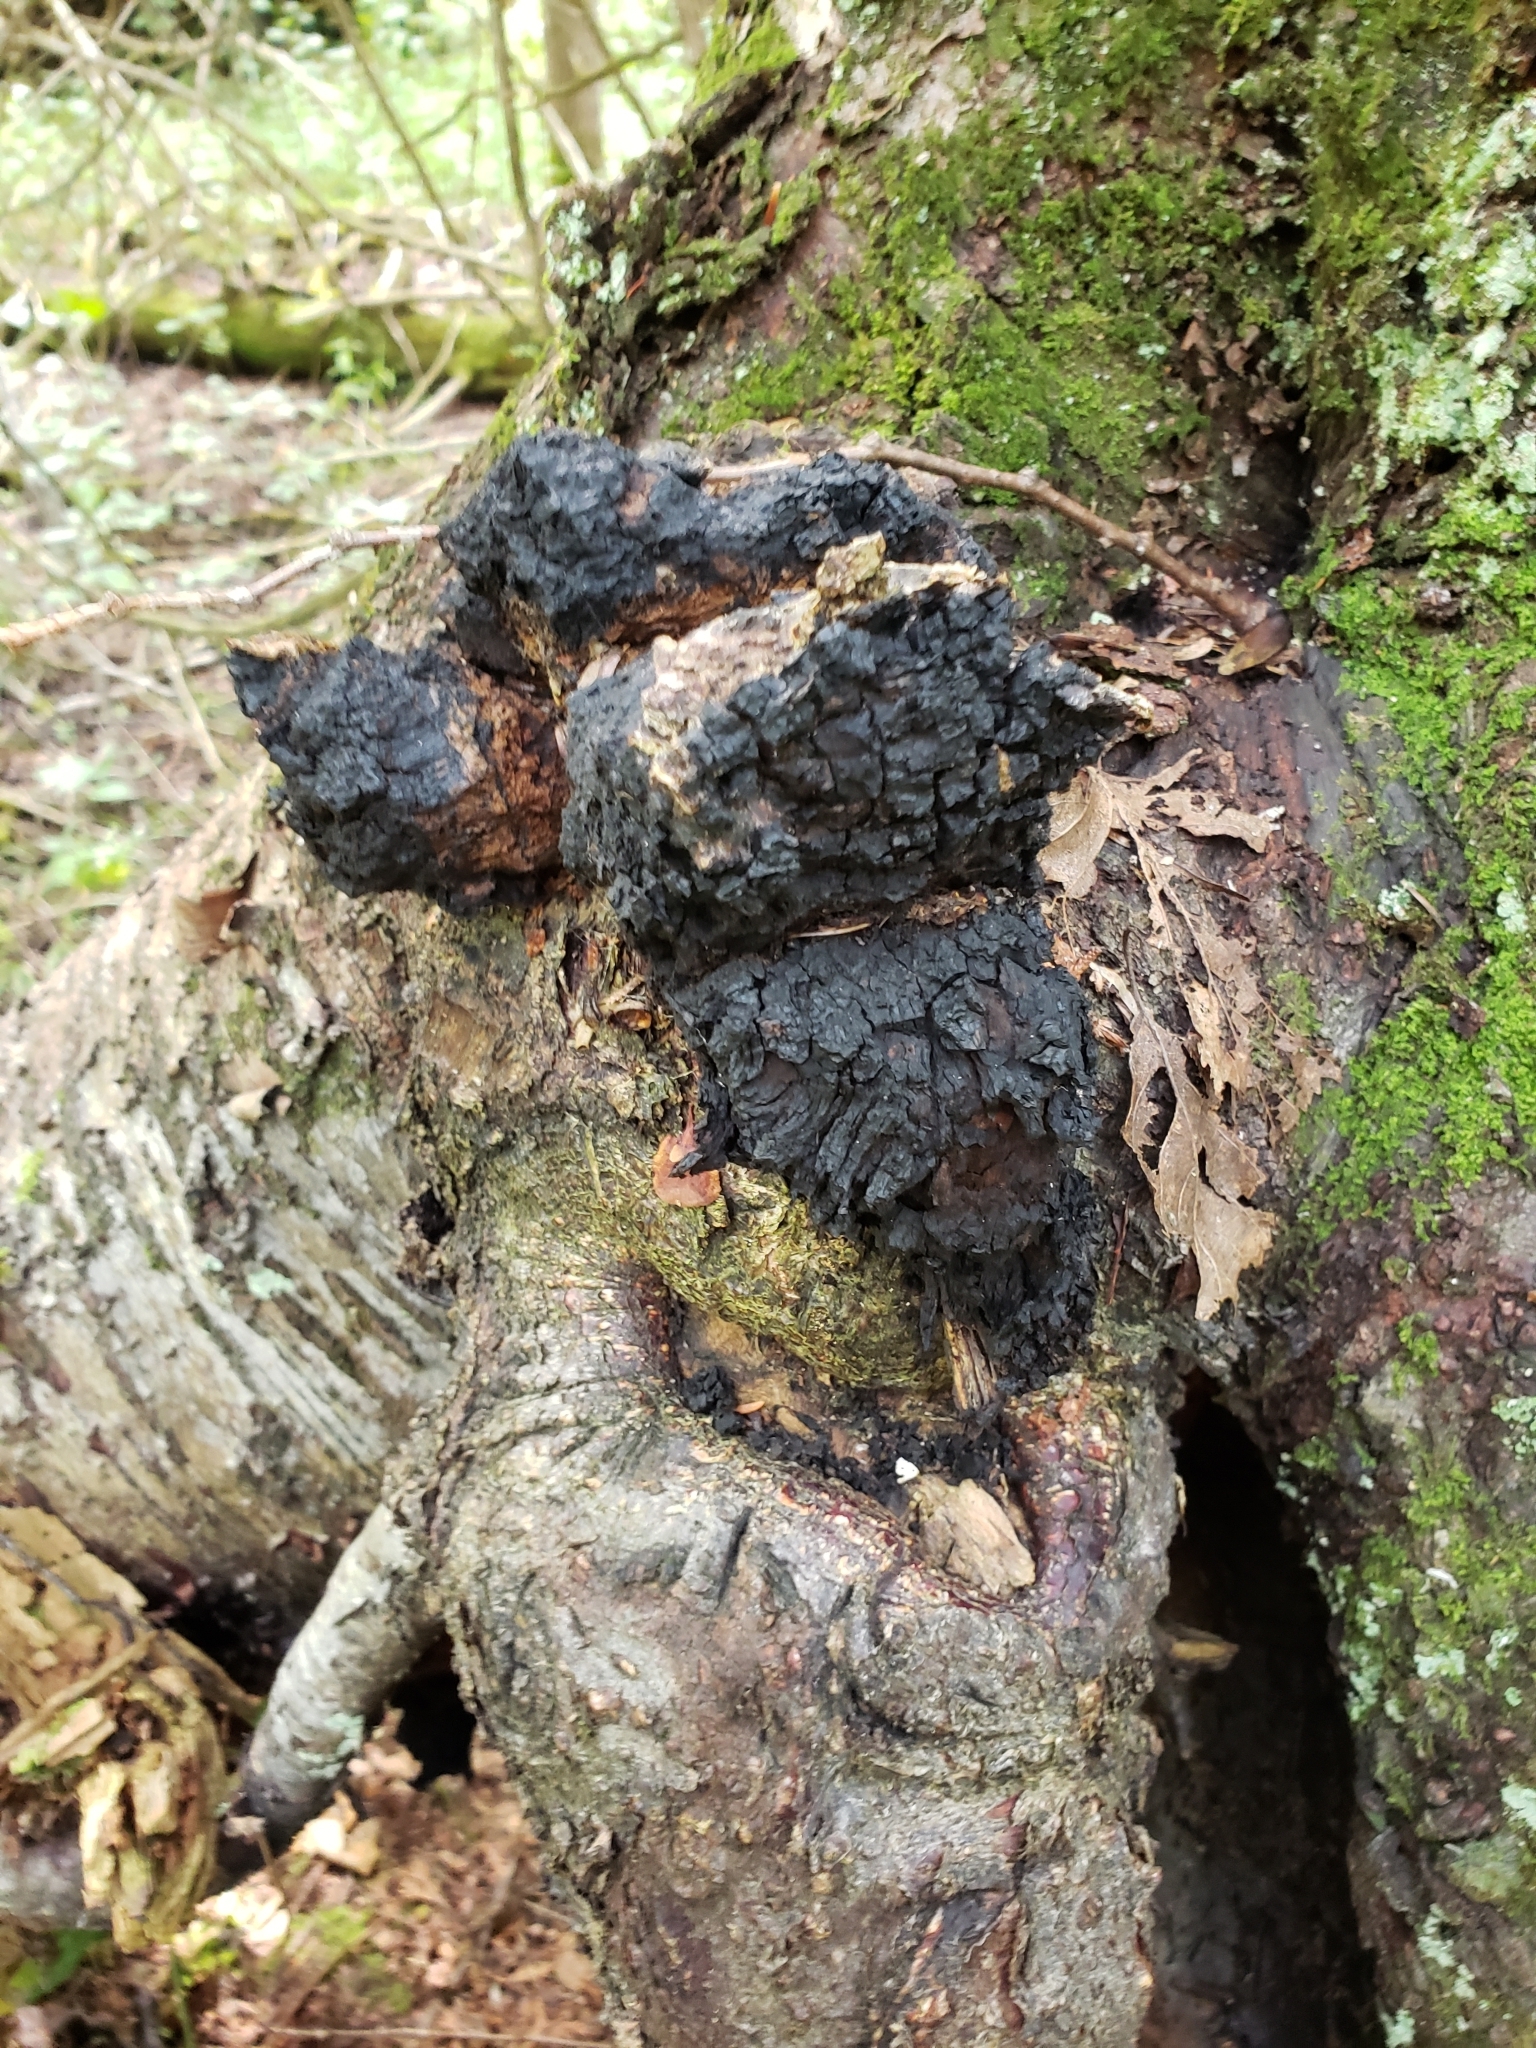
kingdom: Fungi
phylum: Basidiomycota
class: Agaricomycetes
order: Hymenochaetales
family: Hymenochaetaceae
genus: Inonotus
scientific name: Inonotus obliquus
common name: Chaga
